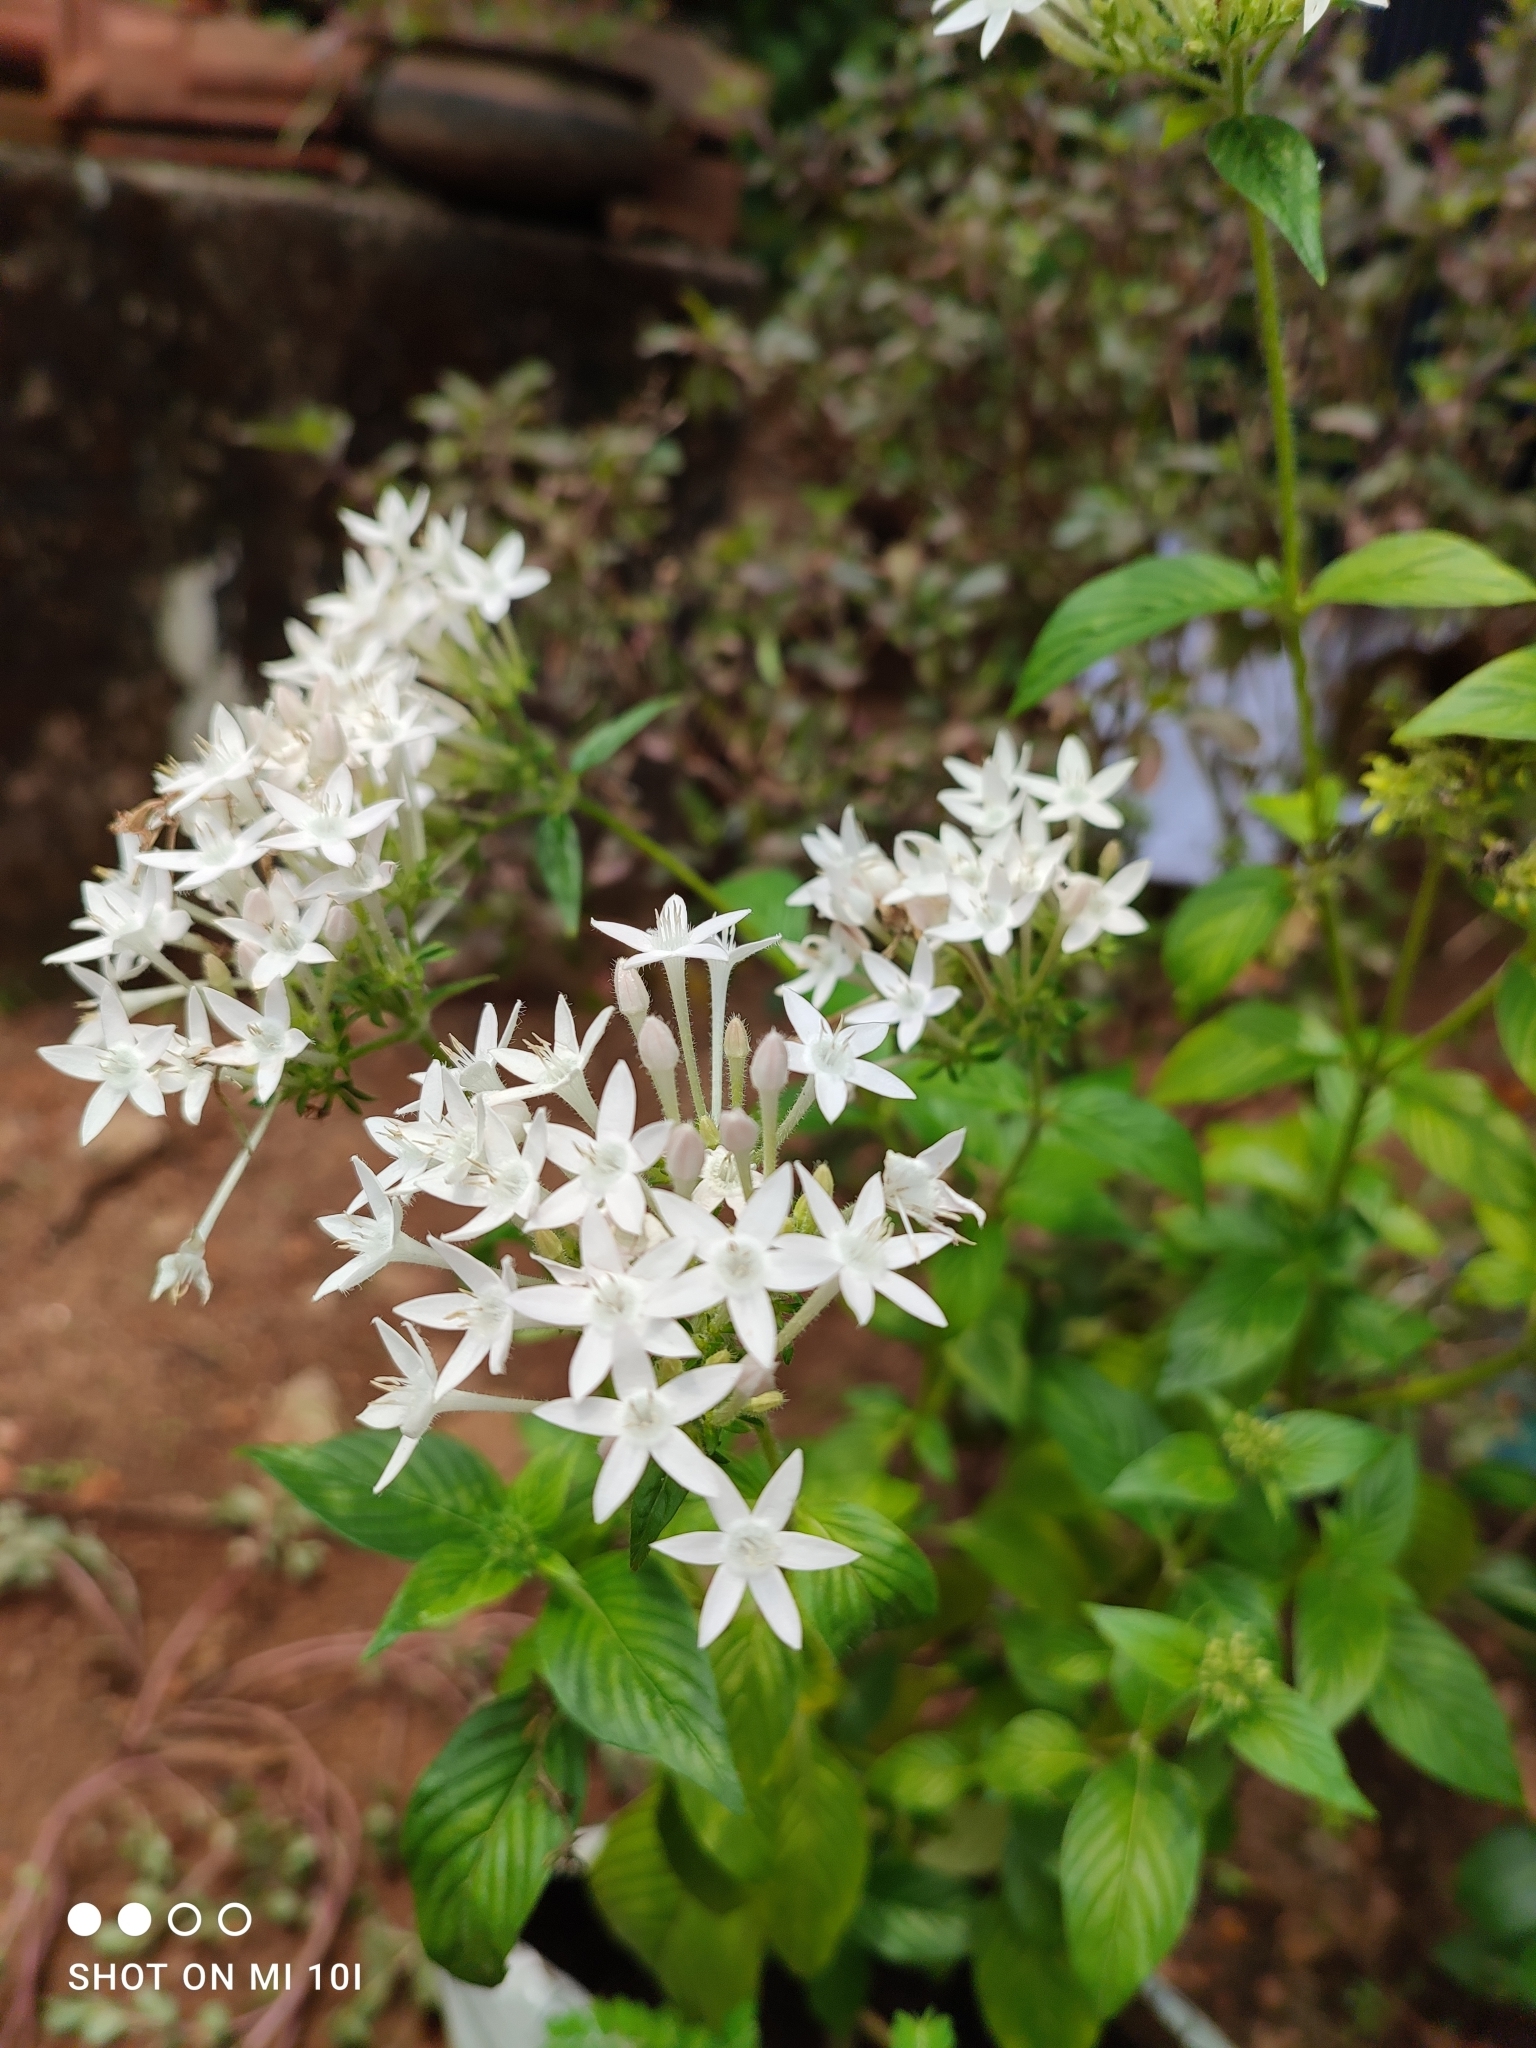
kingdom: Plantae
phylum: Tracheophyta
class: Magnoliopsida
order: Gentianales
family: Rubiaceae
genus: Pentas
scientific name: Pentas lanceolata
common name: Egyptian starcluster
